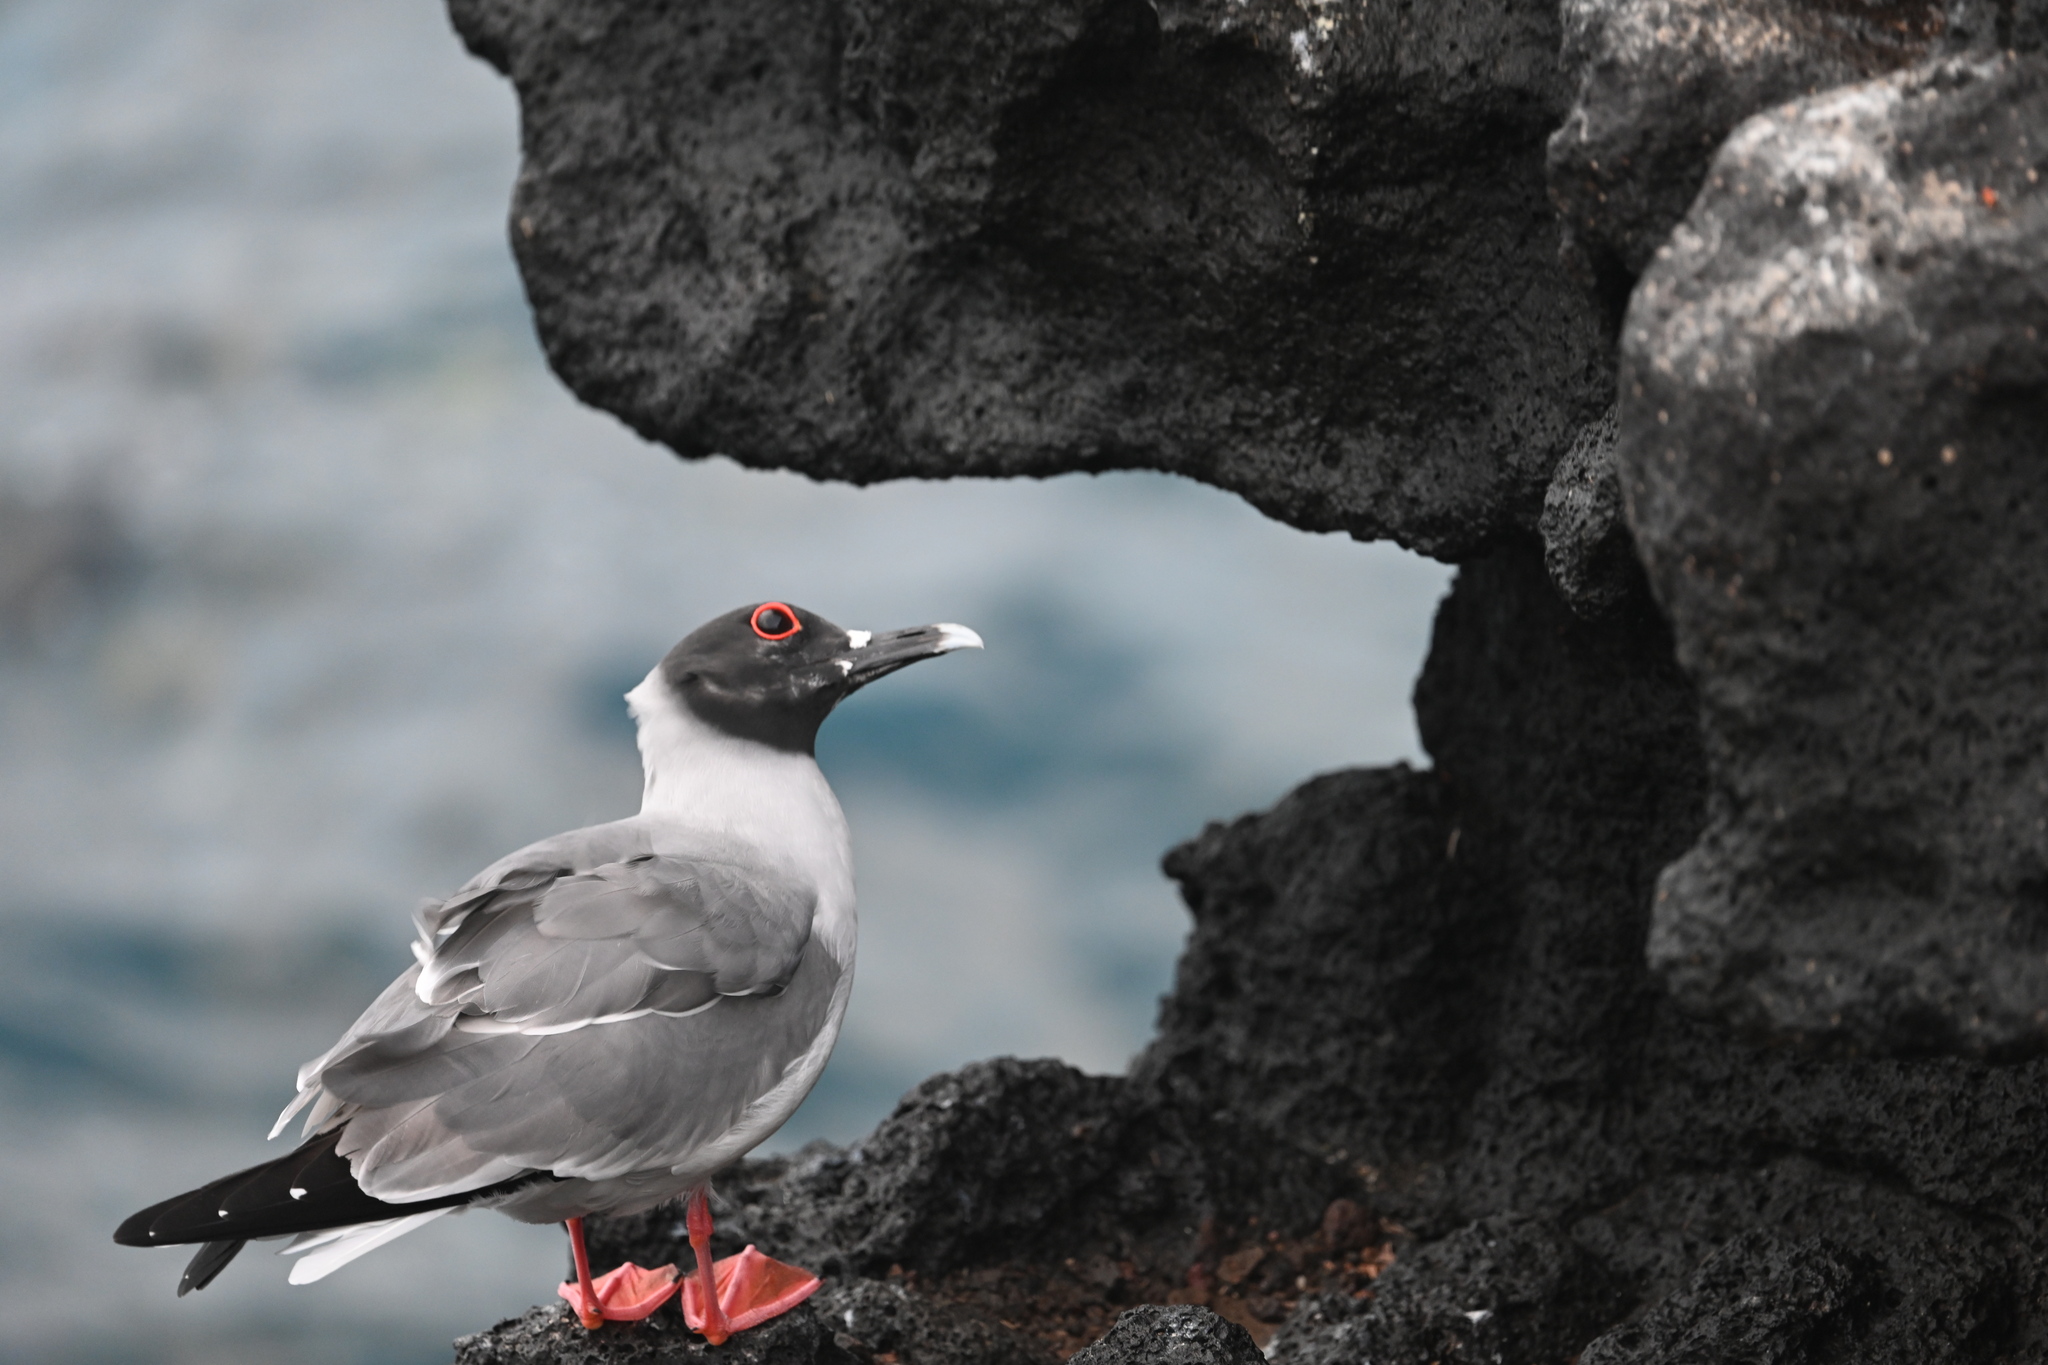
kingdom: Animalia
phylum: Chordata
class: Aves
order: Charadriiformes
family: Laridae
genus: Creagrus
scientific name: Creagrus furcatus
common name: Swallow-tailed gull
